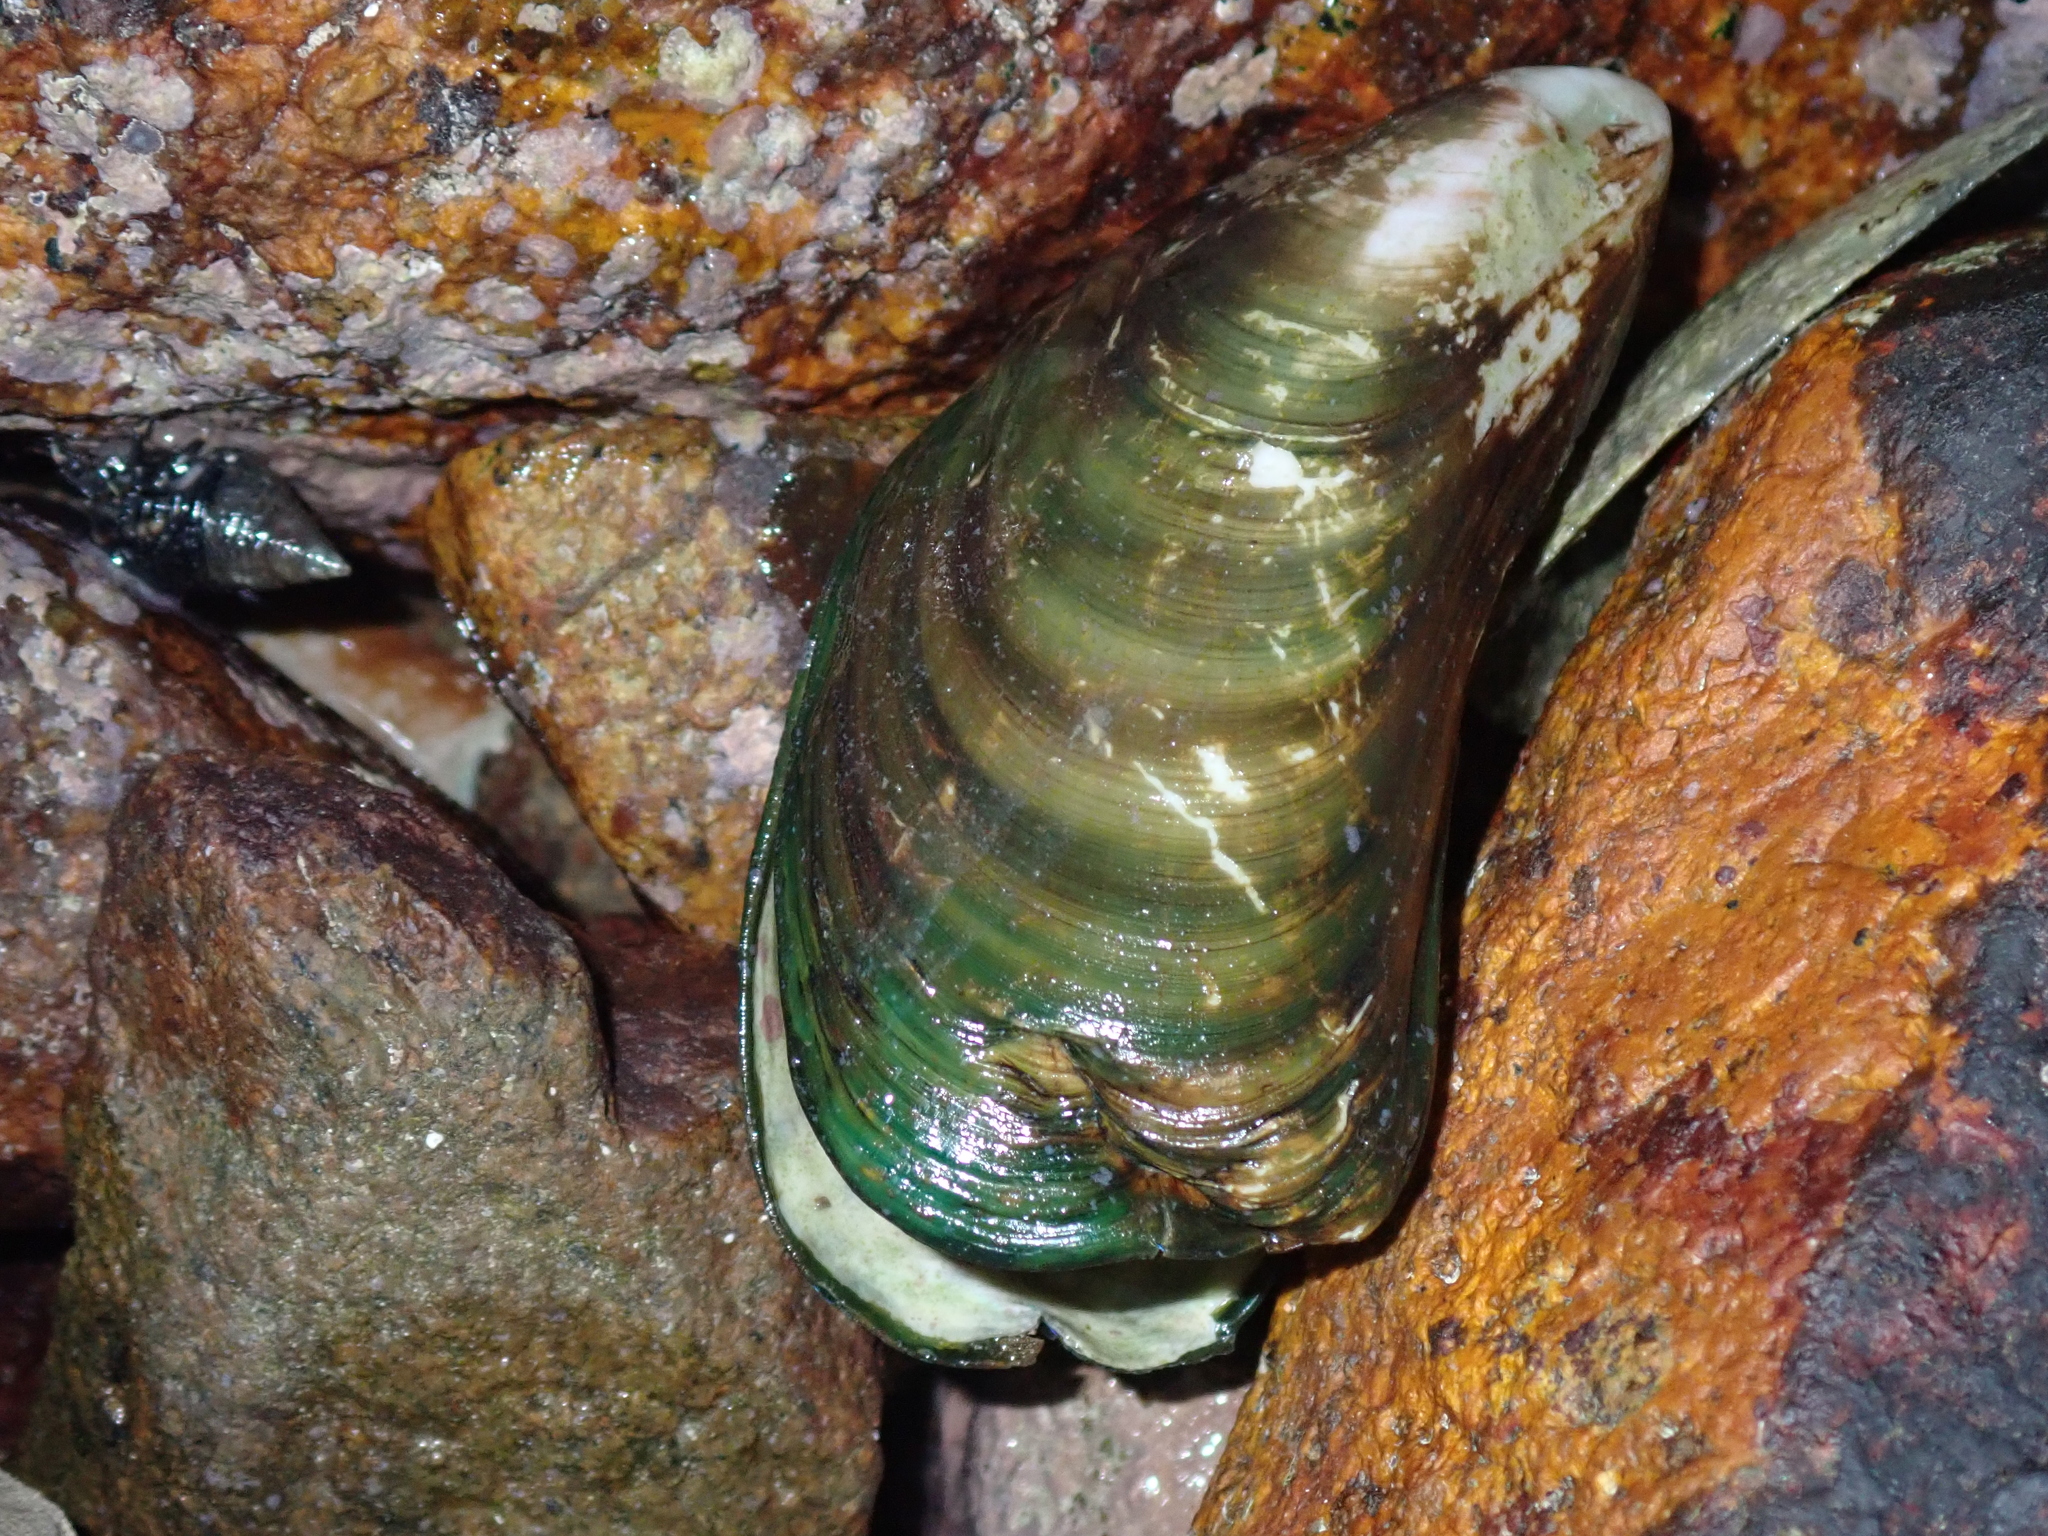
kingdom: Animalia
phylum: Mollusca
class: Bivalvia
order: Mytilida
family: Mytilidae
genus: Perna
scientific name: Perna viridis
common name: Green mussel
